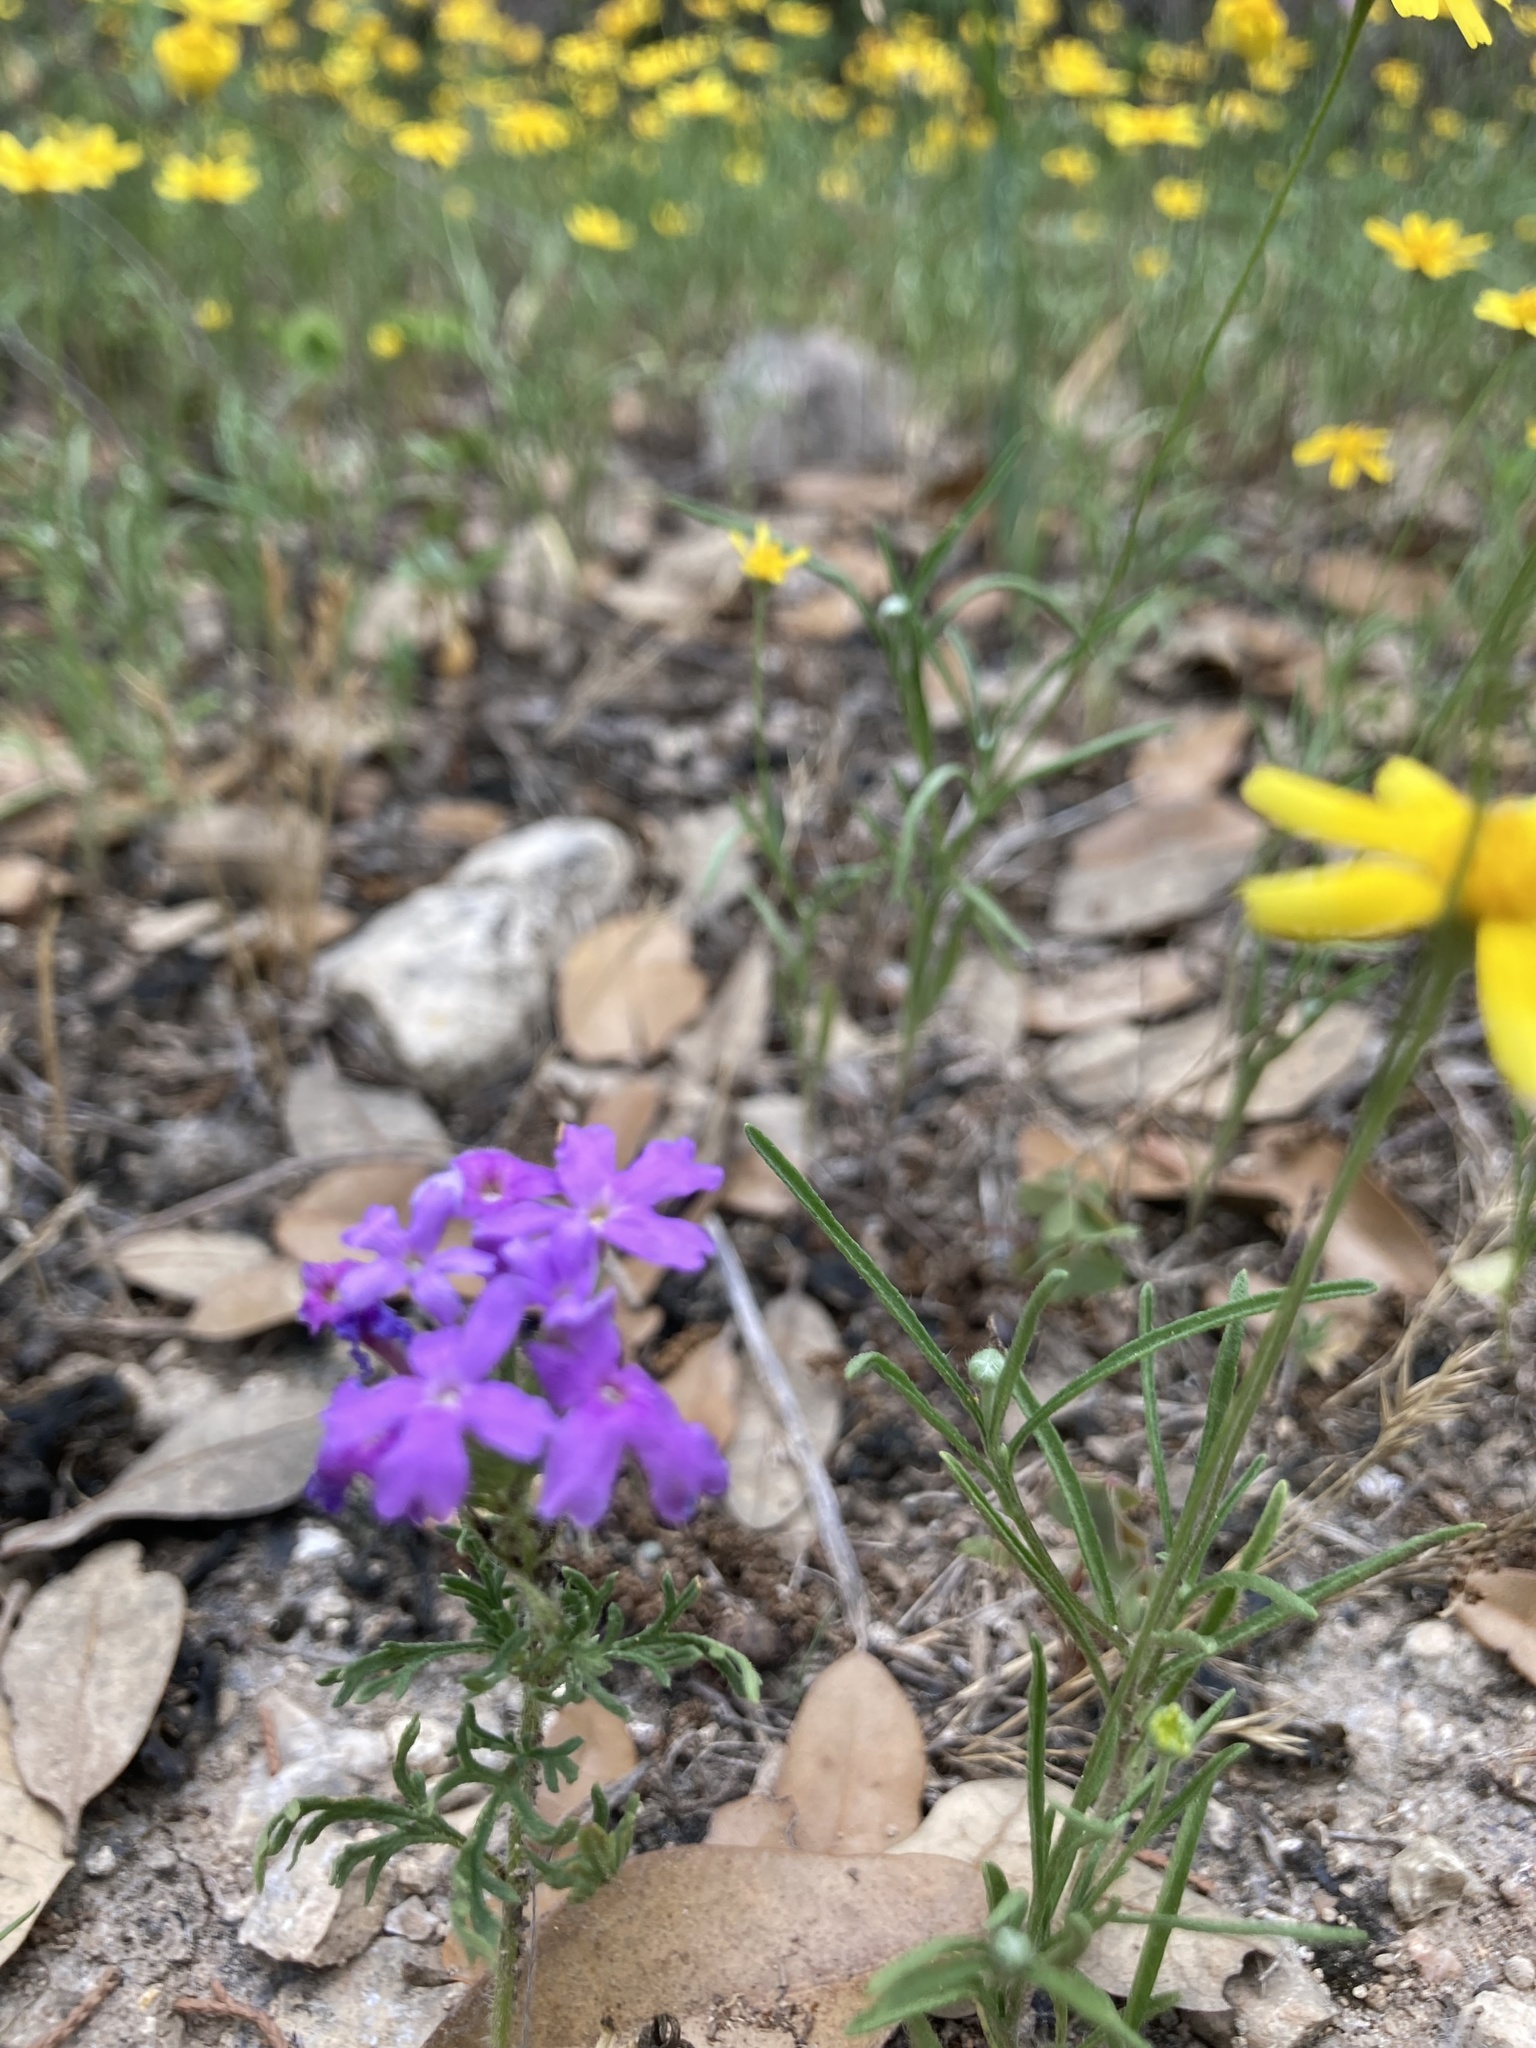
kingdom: Plantae
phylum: Tracheophyta
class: Magnoliopsida
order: Lamiales
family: Verbenaceae
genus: Verbena
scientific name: Verbena bipinnatifida
